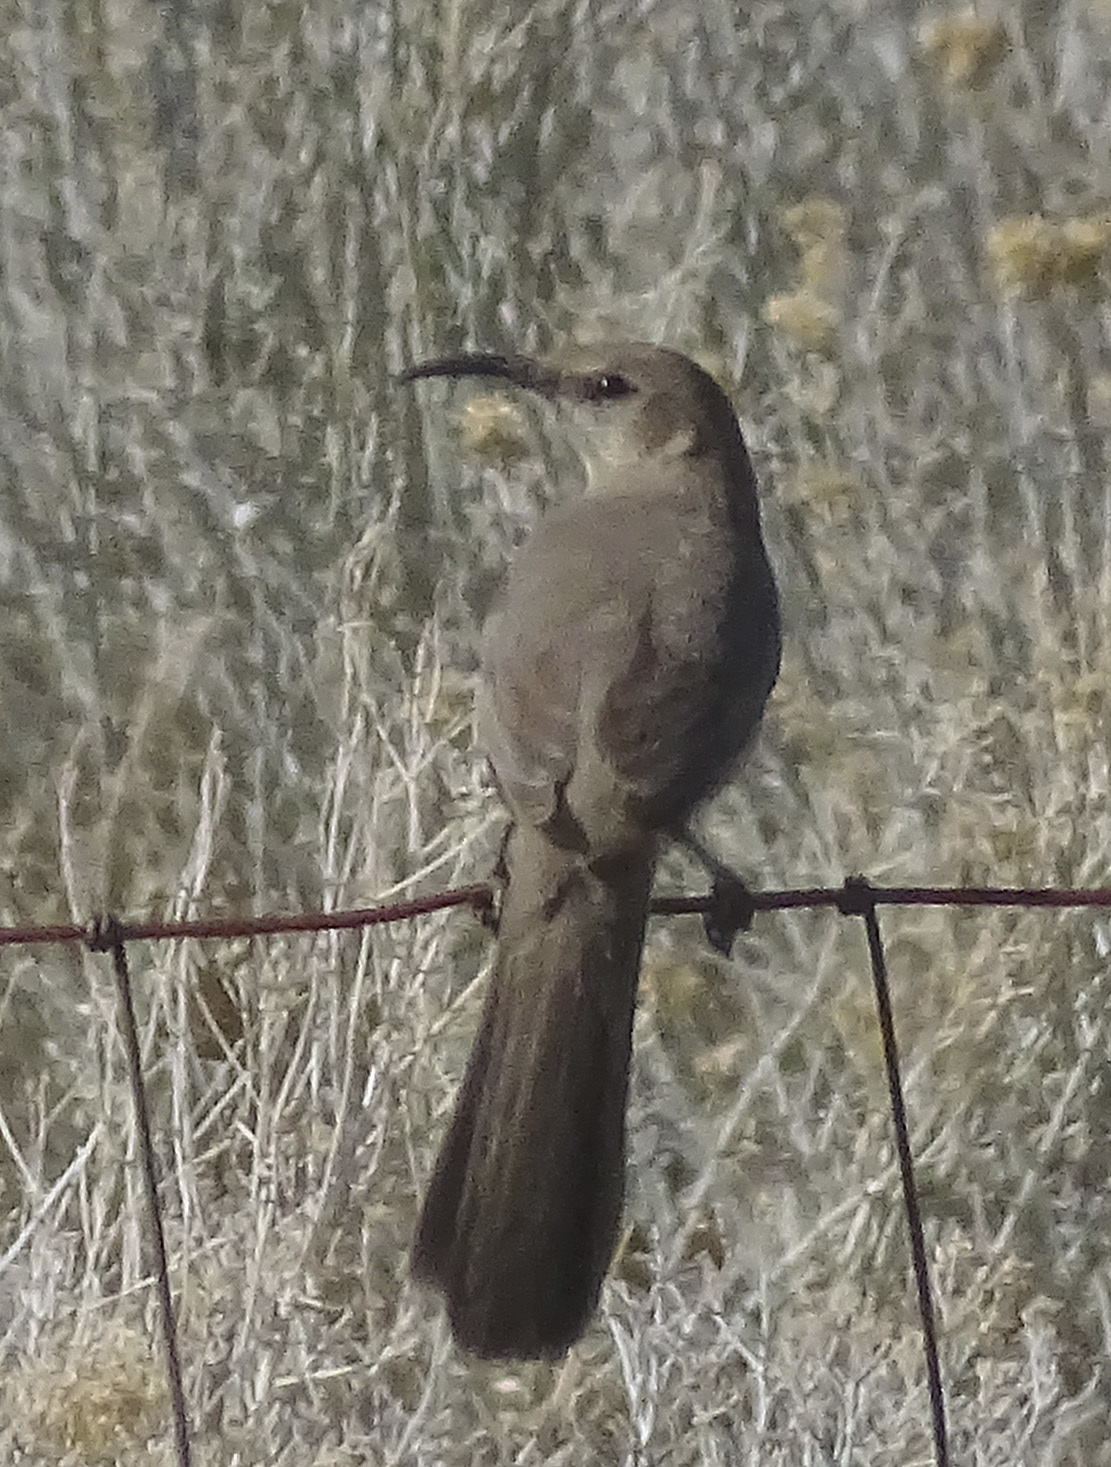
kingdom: Animalia
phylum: Chordata
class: Aves
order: Passeriformes
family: Mimidae
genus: Toxostoma
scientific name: Toxostoma lecontei
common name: Le conte's thrasher
